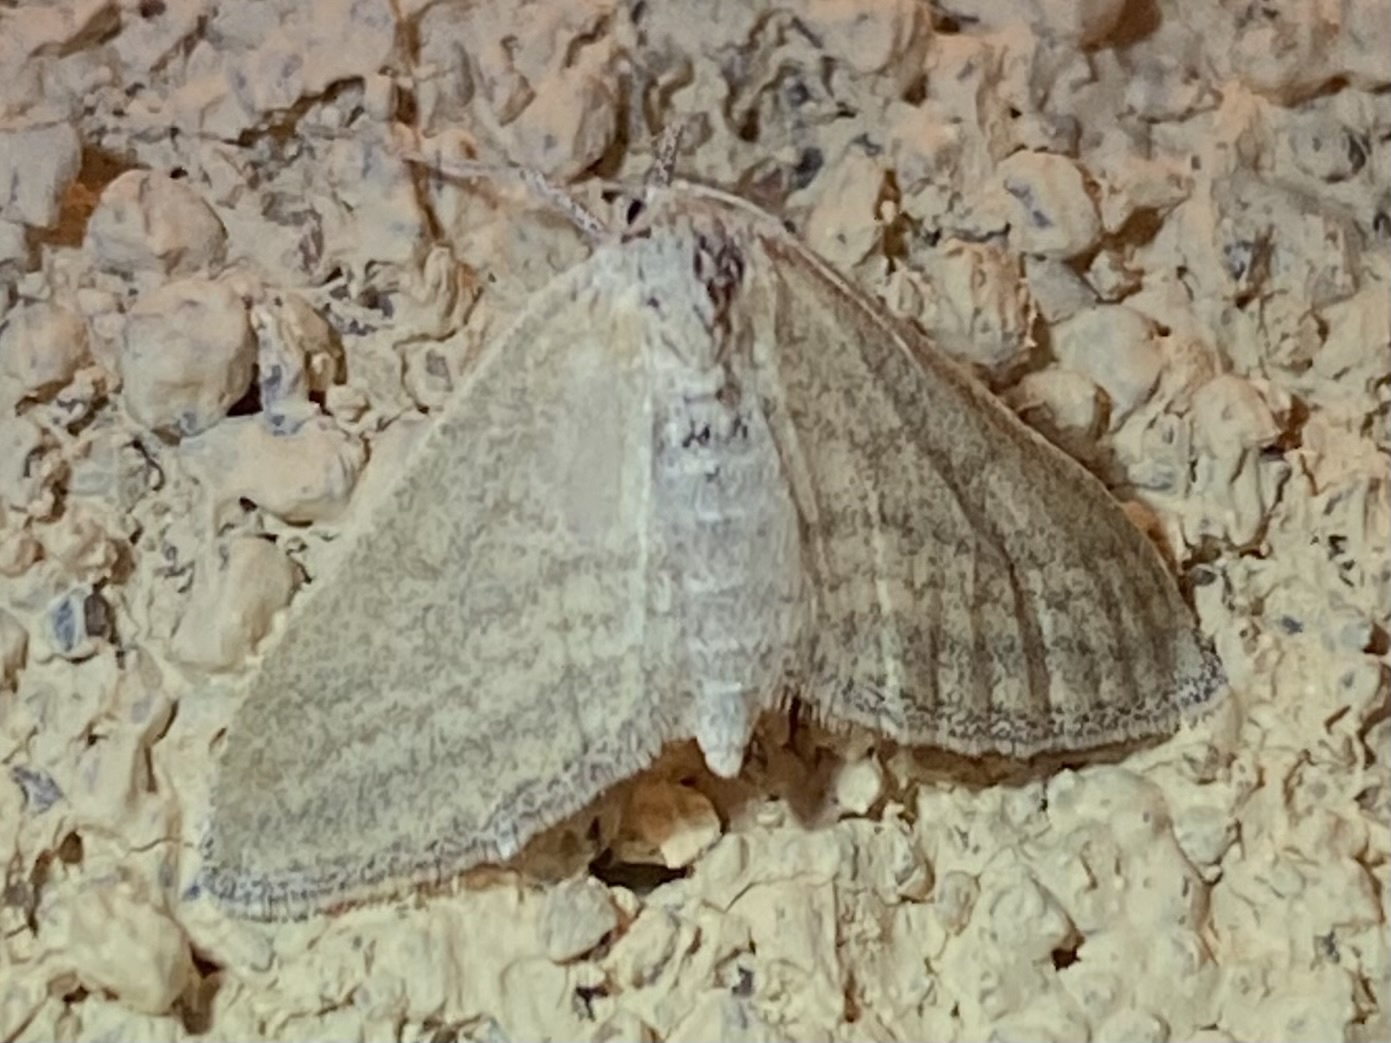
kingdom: Animalia
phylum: Arthropoda
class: Insecta
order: Lepidoptera
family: Geometridae
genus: Lobocleta
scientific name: Lobocleta plemyraria
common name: Straight-lined wave
